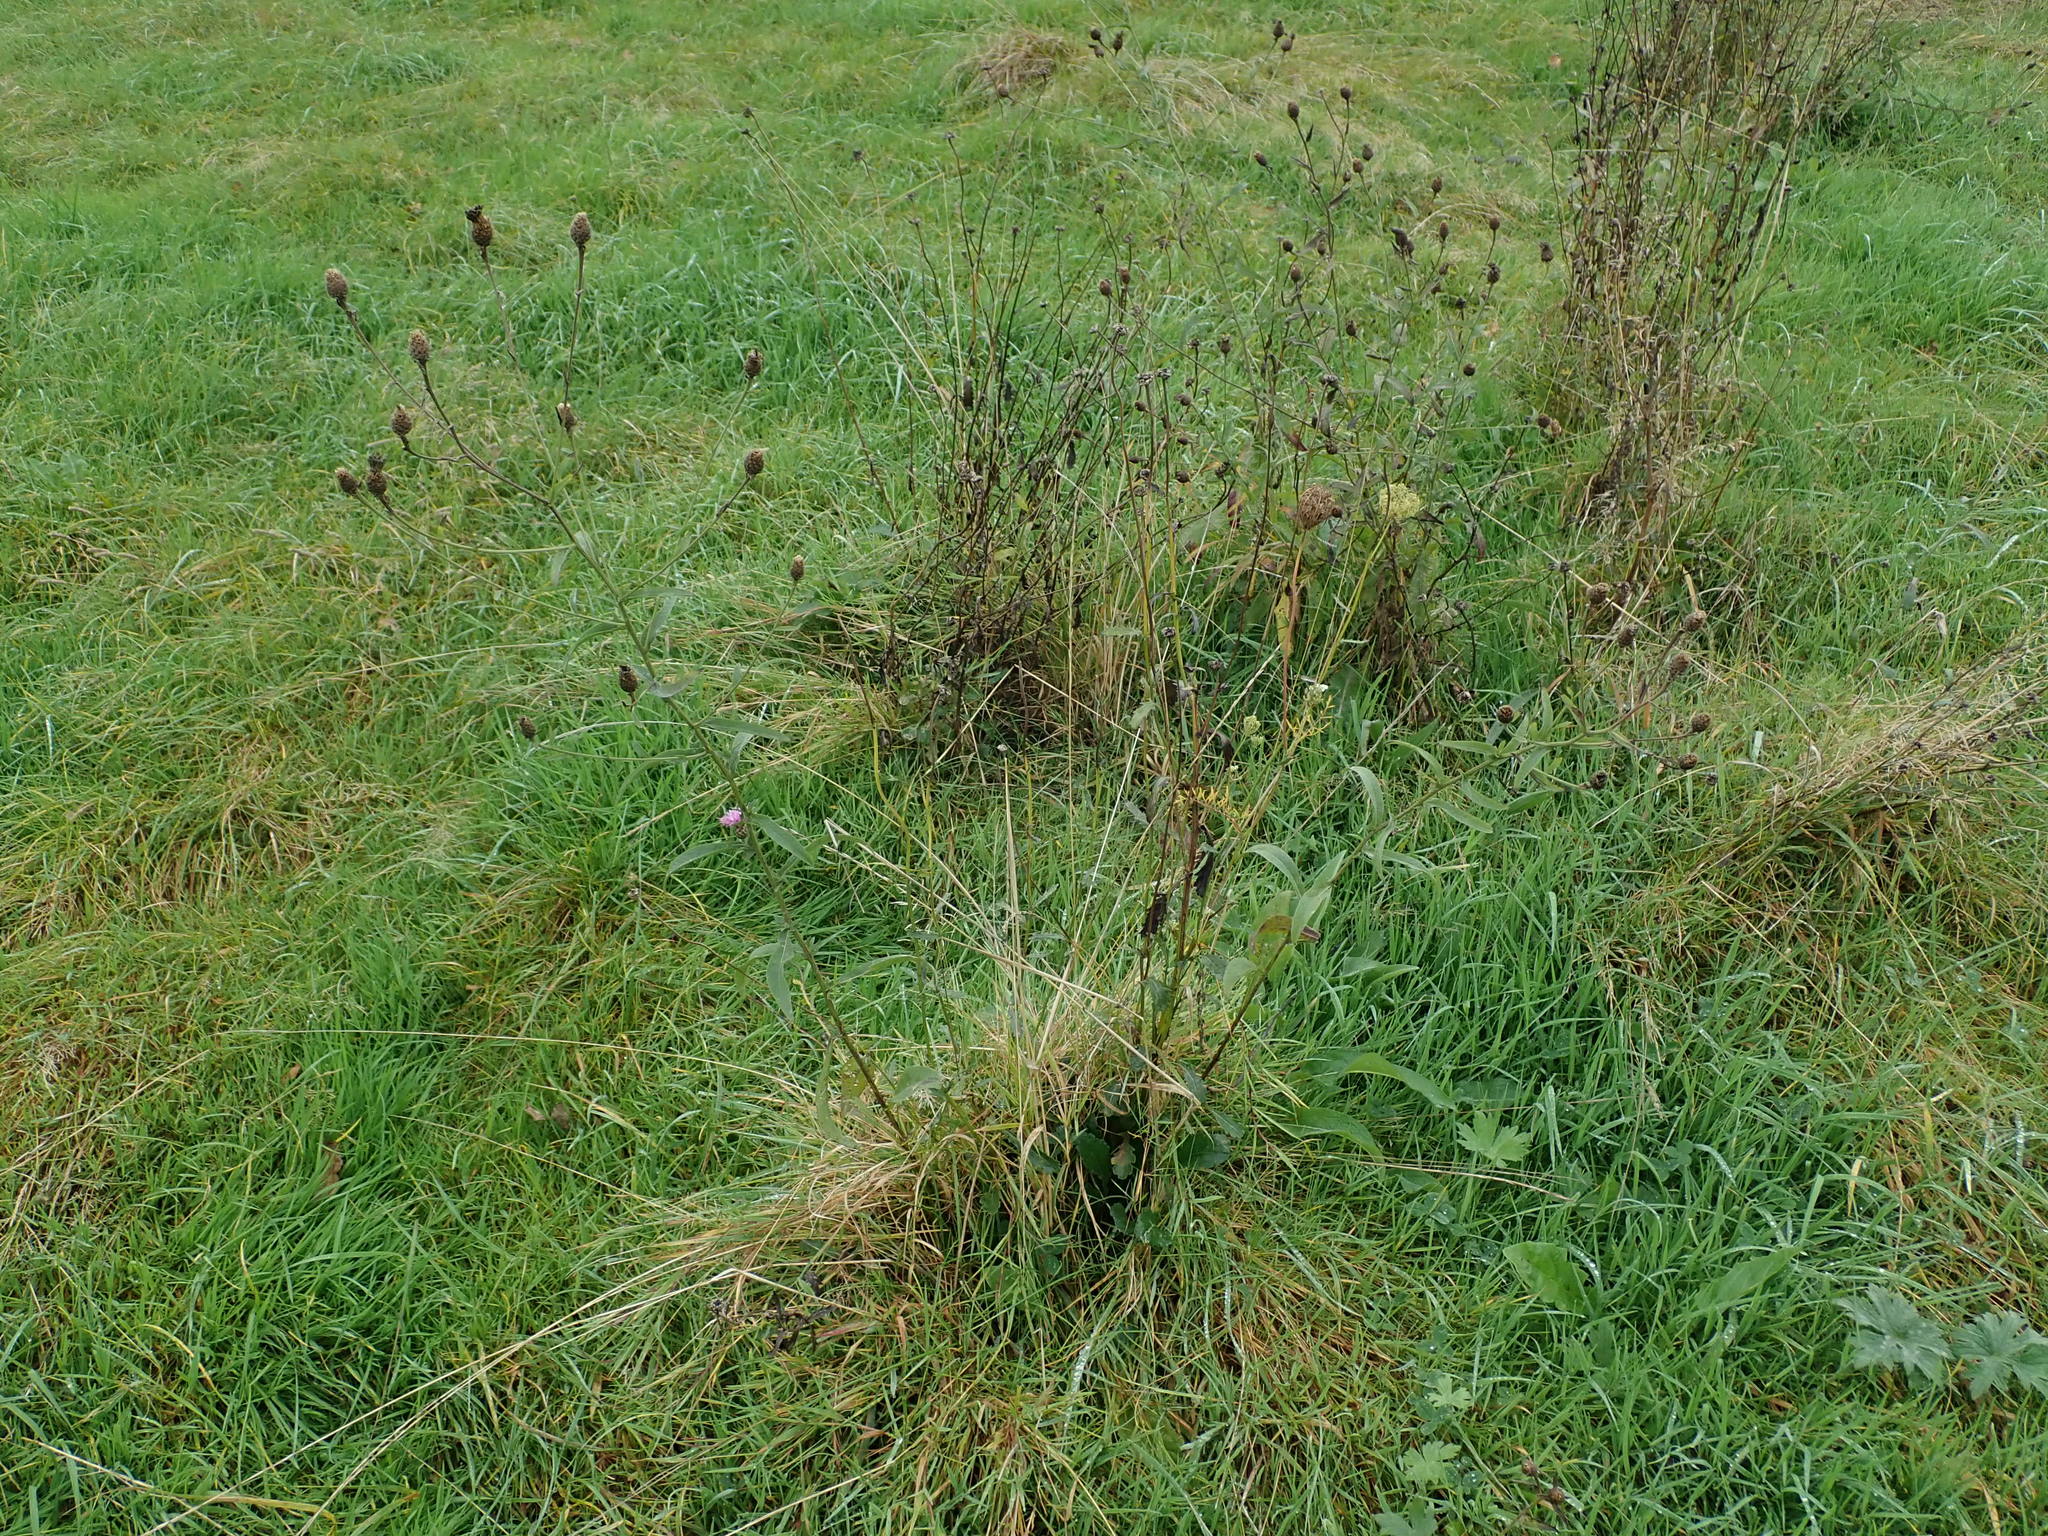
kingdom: Plantae
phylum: Tracheophyta
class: Magnoliopsida
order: Asterales
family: Asteraceae
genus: Centaurea
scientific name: Centaurea debeauxii
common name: Slender knapweed
